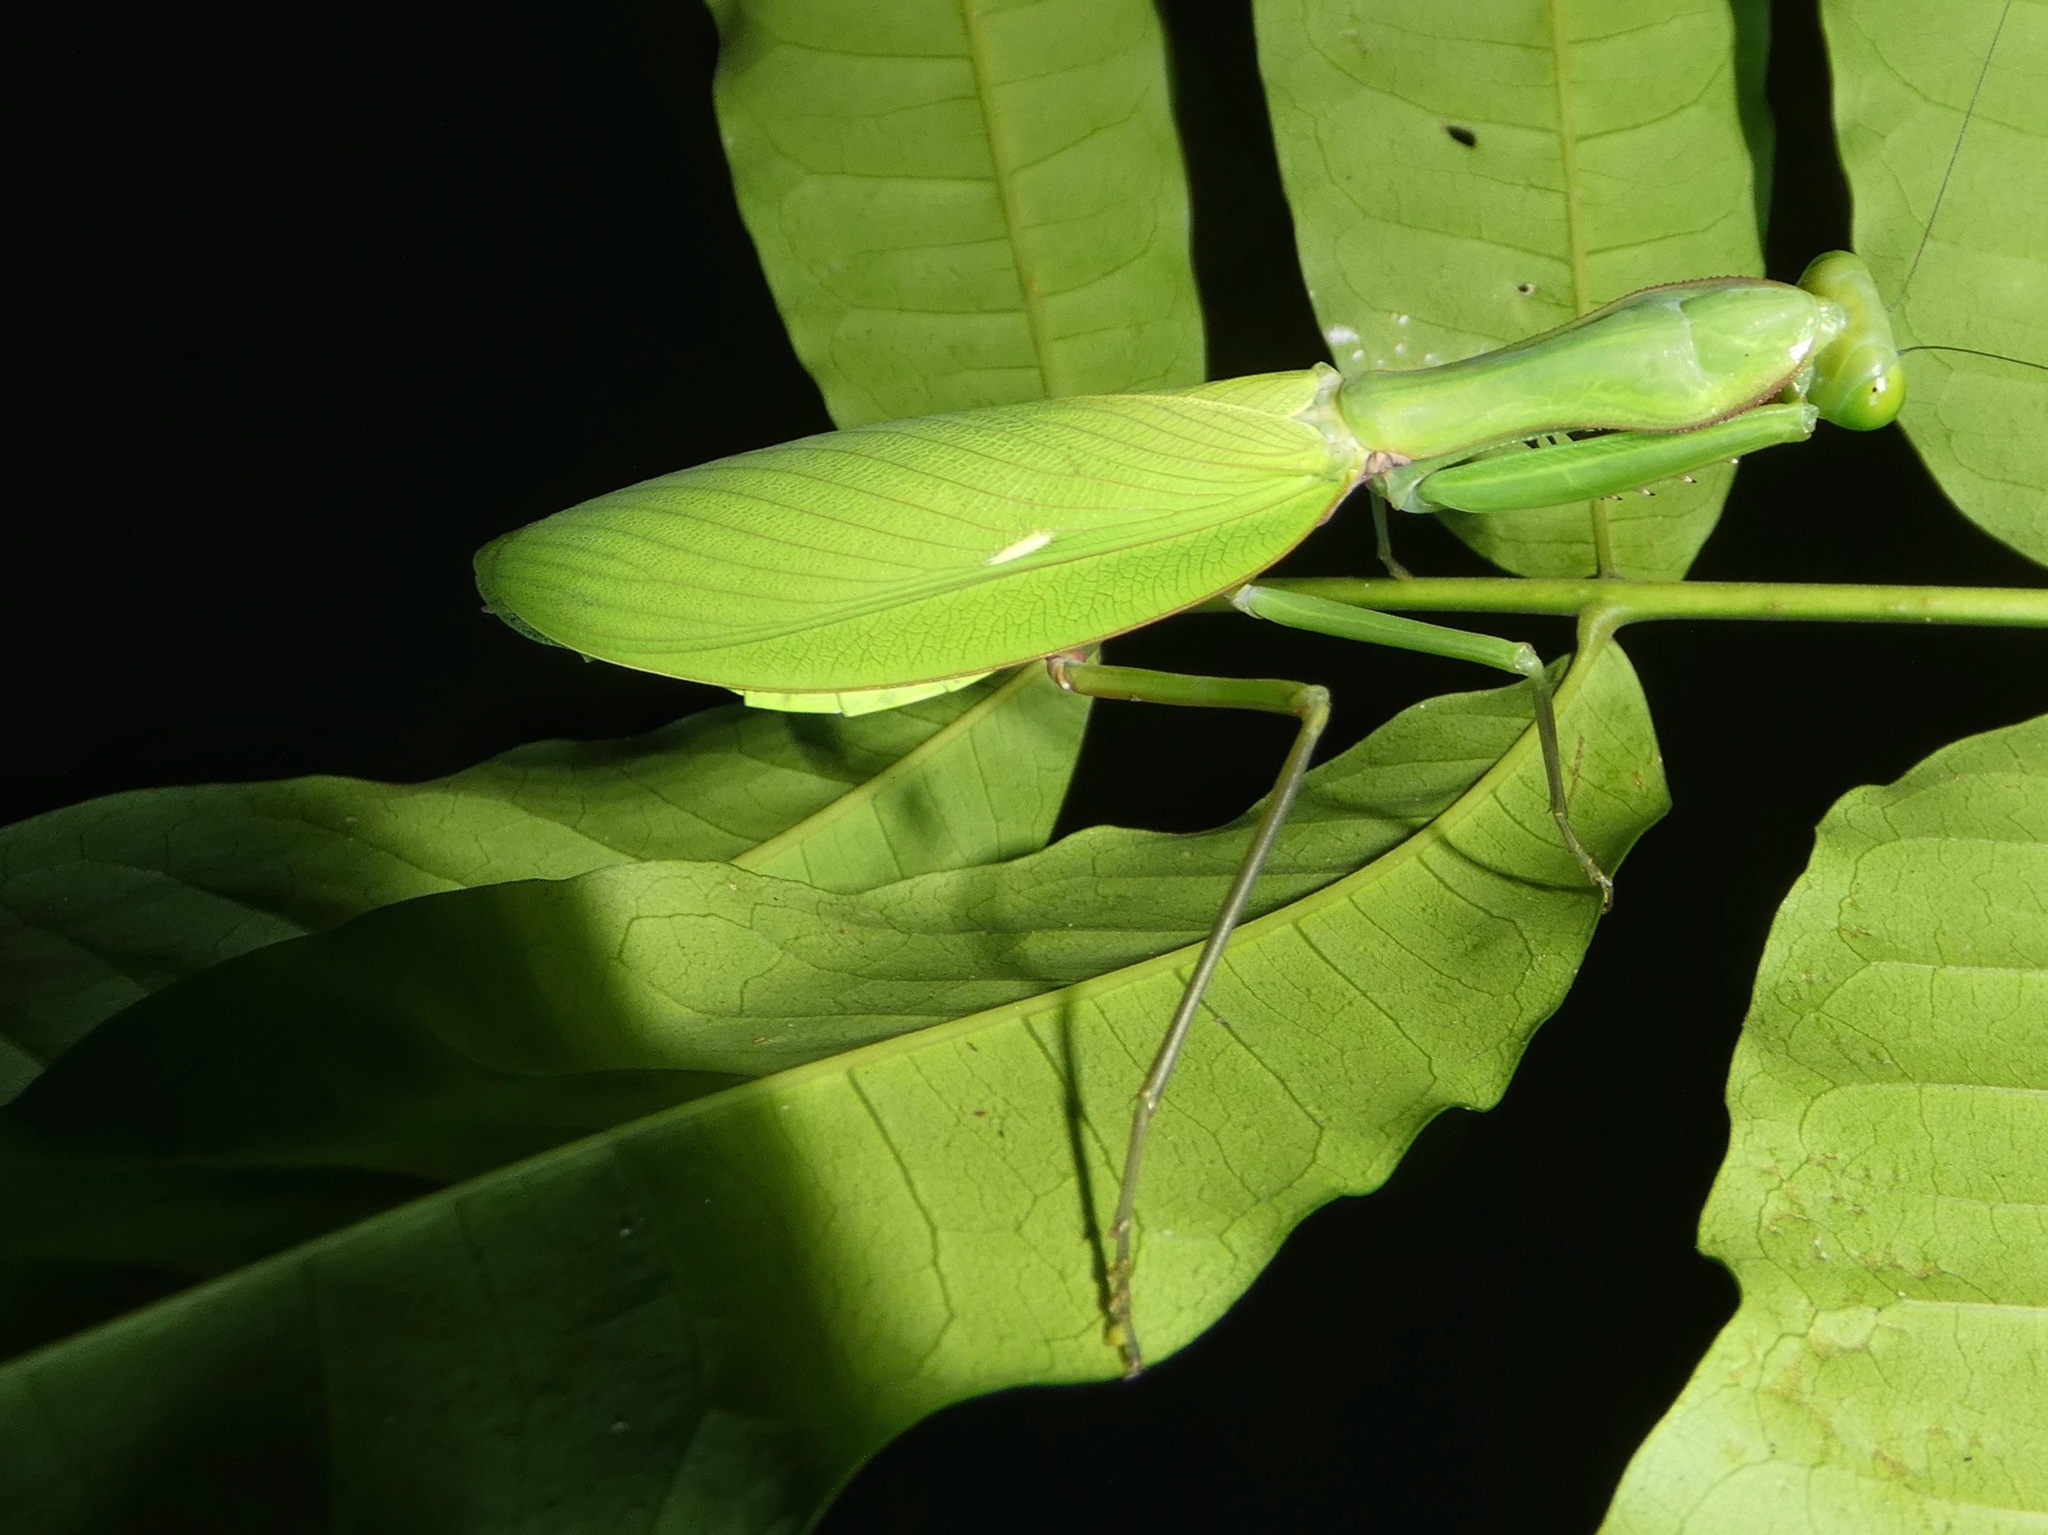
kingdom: Animalia
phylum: Arthropoda
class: Insecta
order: Mantodea
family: Mantidae
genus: Hierodula
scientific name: Hierodula majuscula
